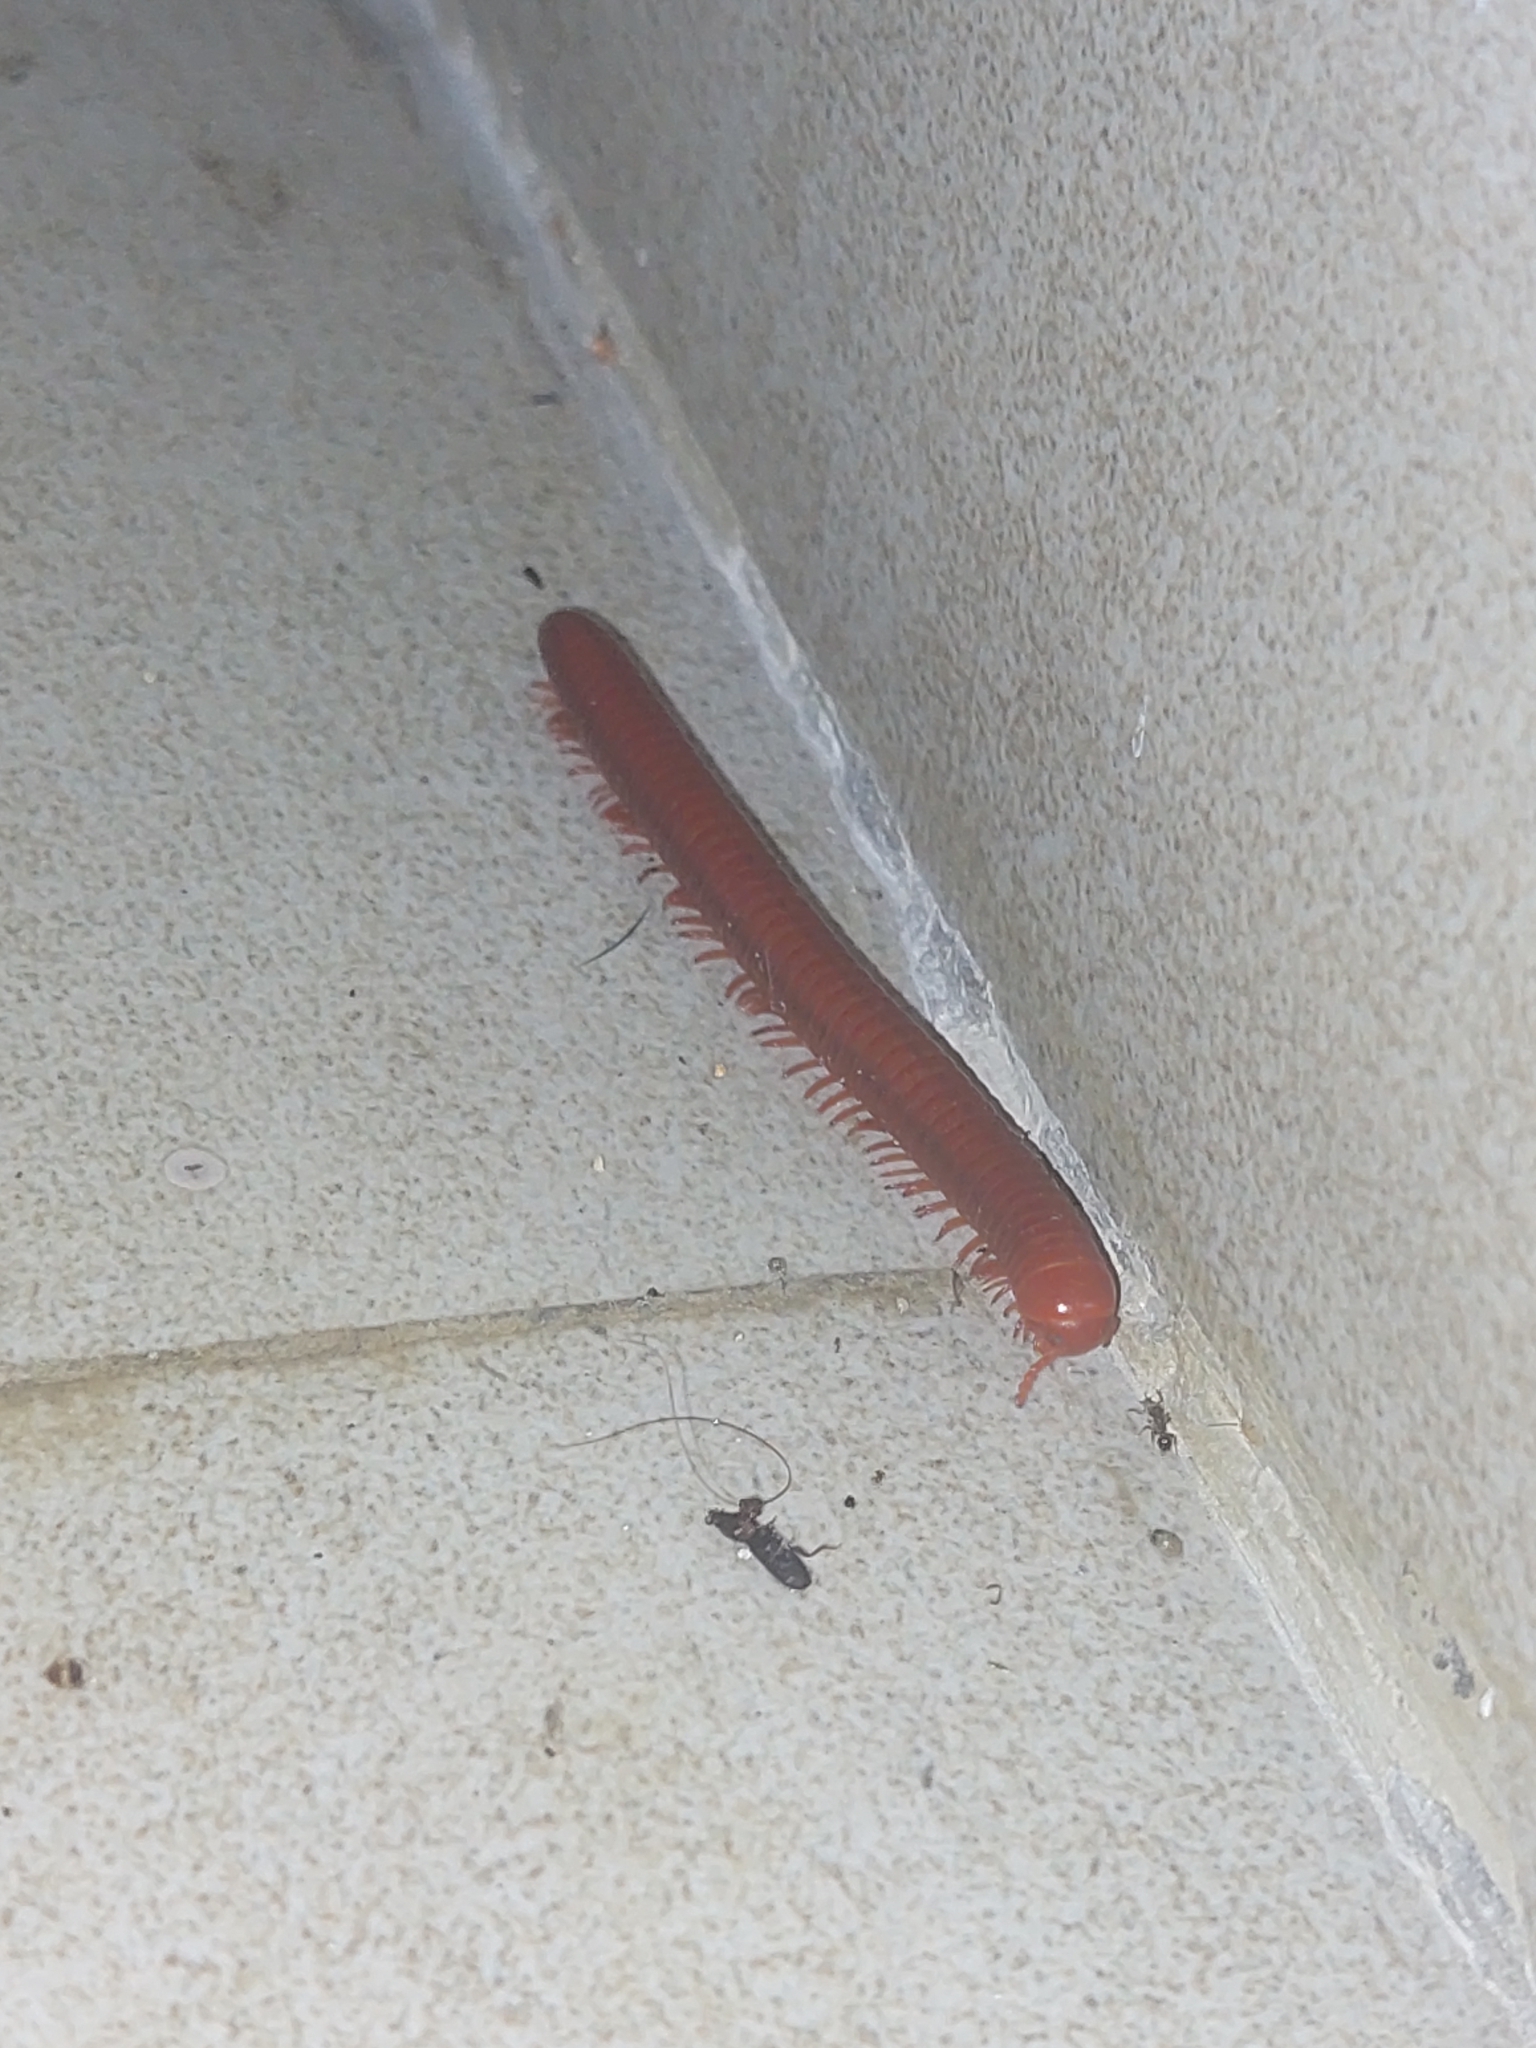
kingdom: Animalia
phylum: Arthropoda
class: Diplopoda
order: Spirobolida
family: Pachybolidae
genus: Trigoniulus
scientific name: Trigoniulus corallinus
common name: Millipede
